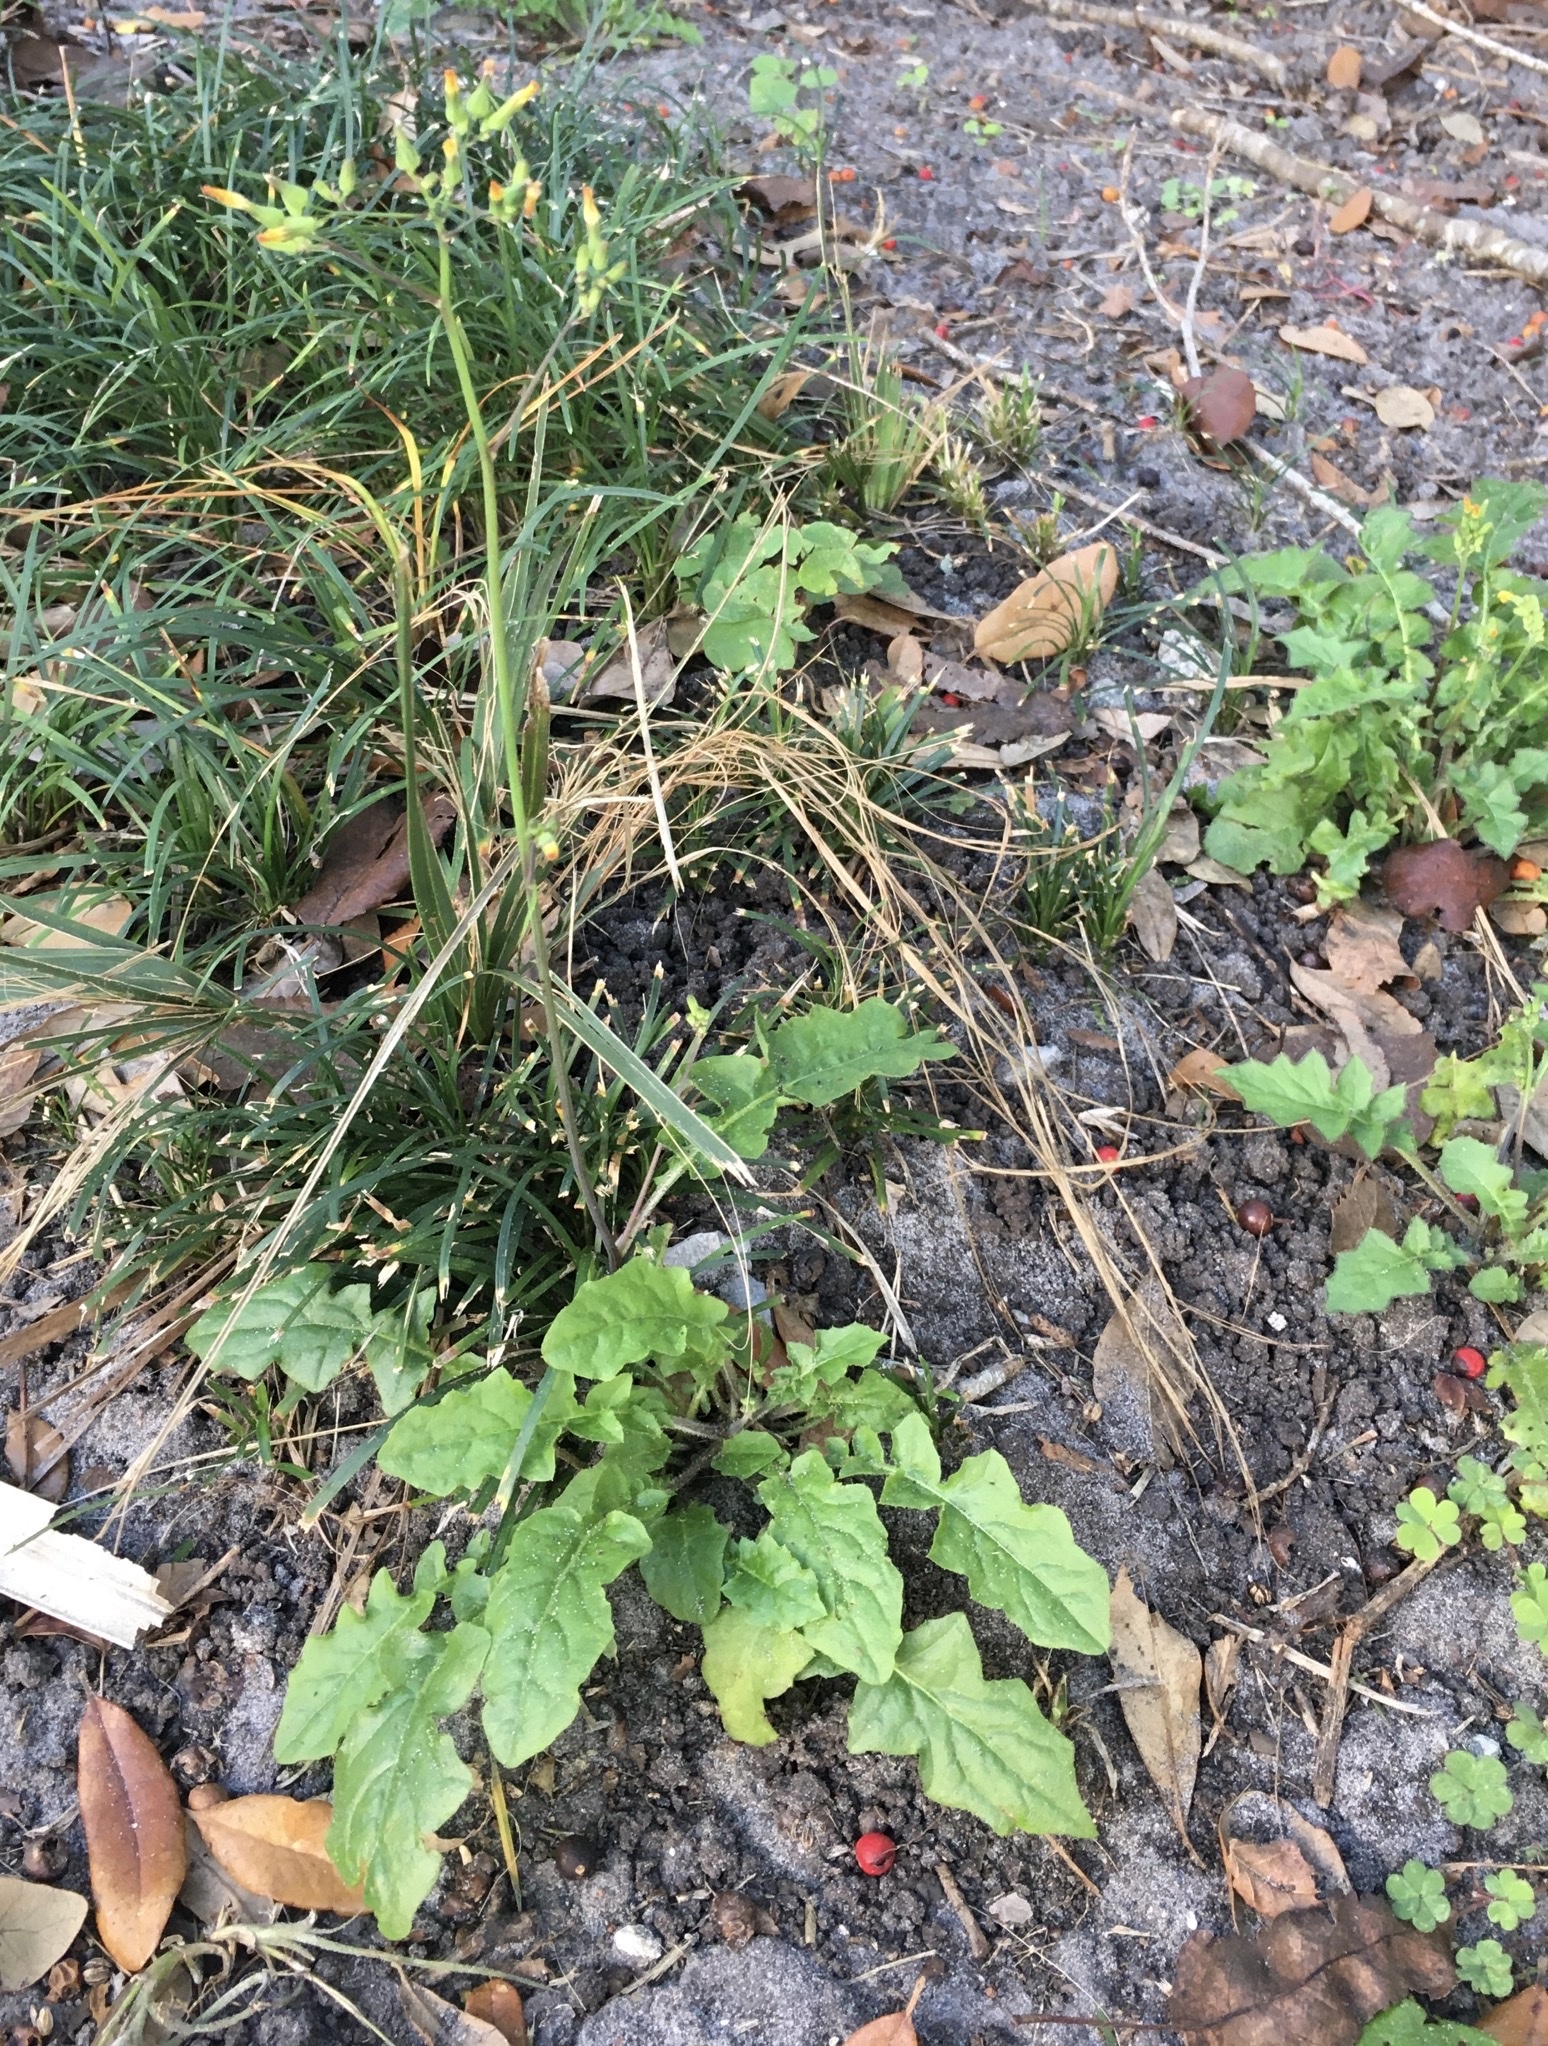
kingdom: Plantae
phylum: Tracheophyta
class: Magnoliopsida
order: Asterales
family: Asteraceae
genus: Youngia
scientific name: Youngia japonica
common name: Oriental false hawksbeard
